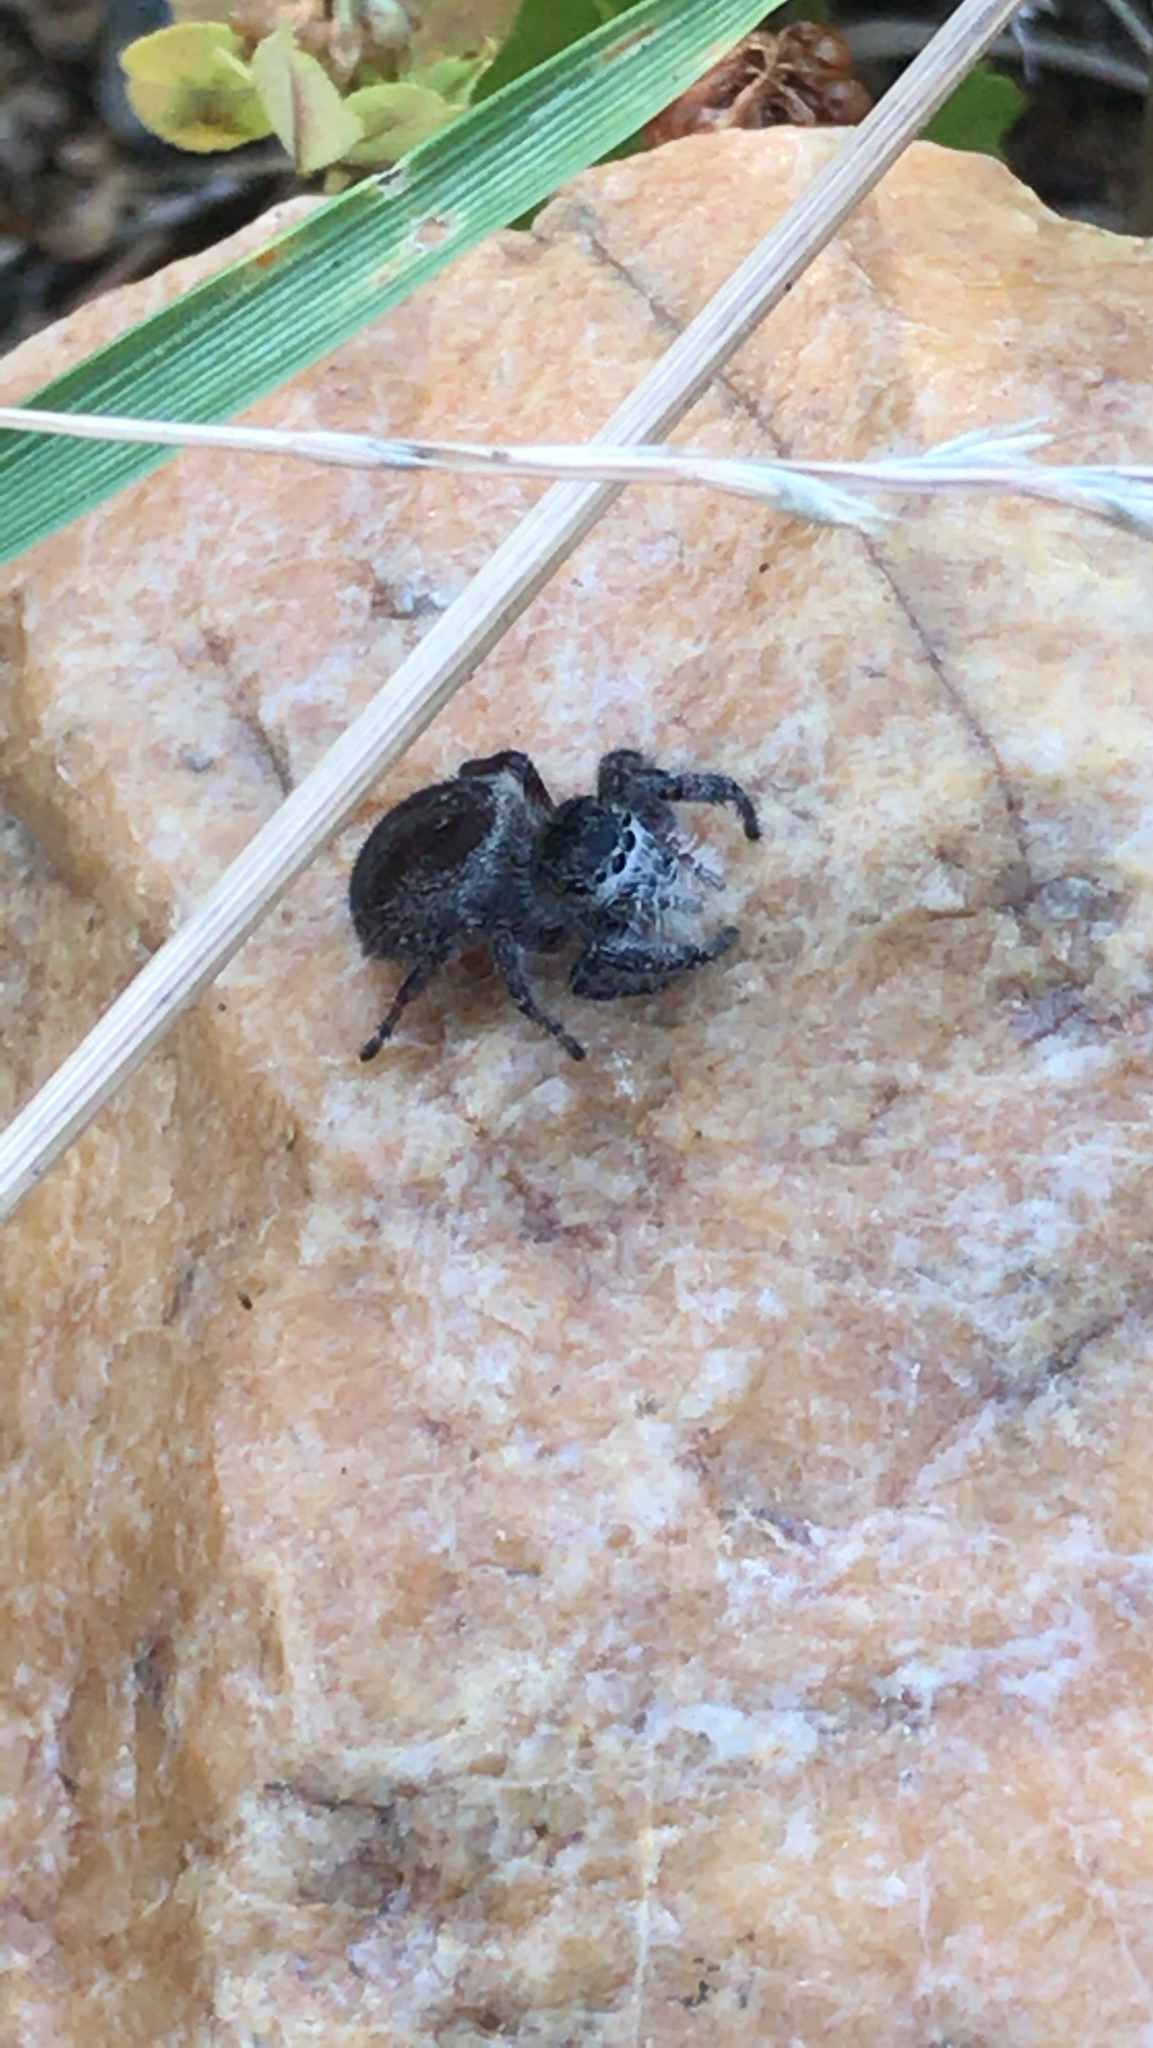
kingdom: Animalia
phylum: Arthropoda
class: Arachnida
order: Araneae
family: Salticidae
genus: Phidippus
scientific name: Phidippus princeps
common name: Grayish jumping spider
